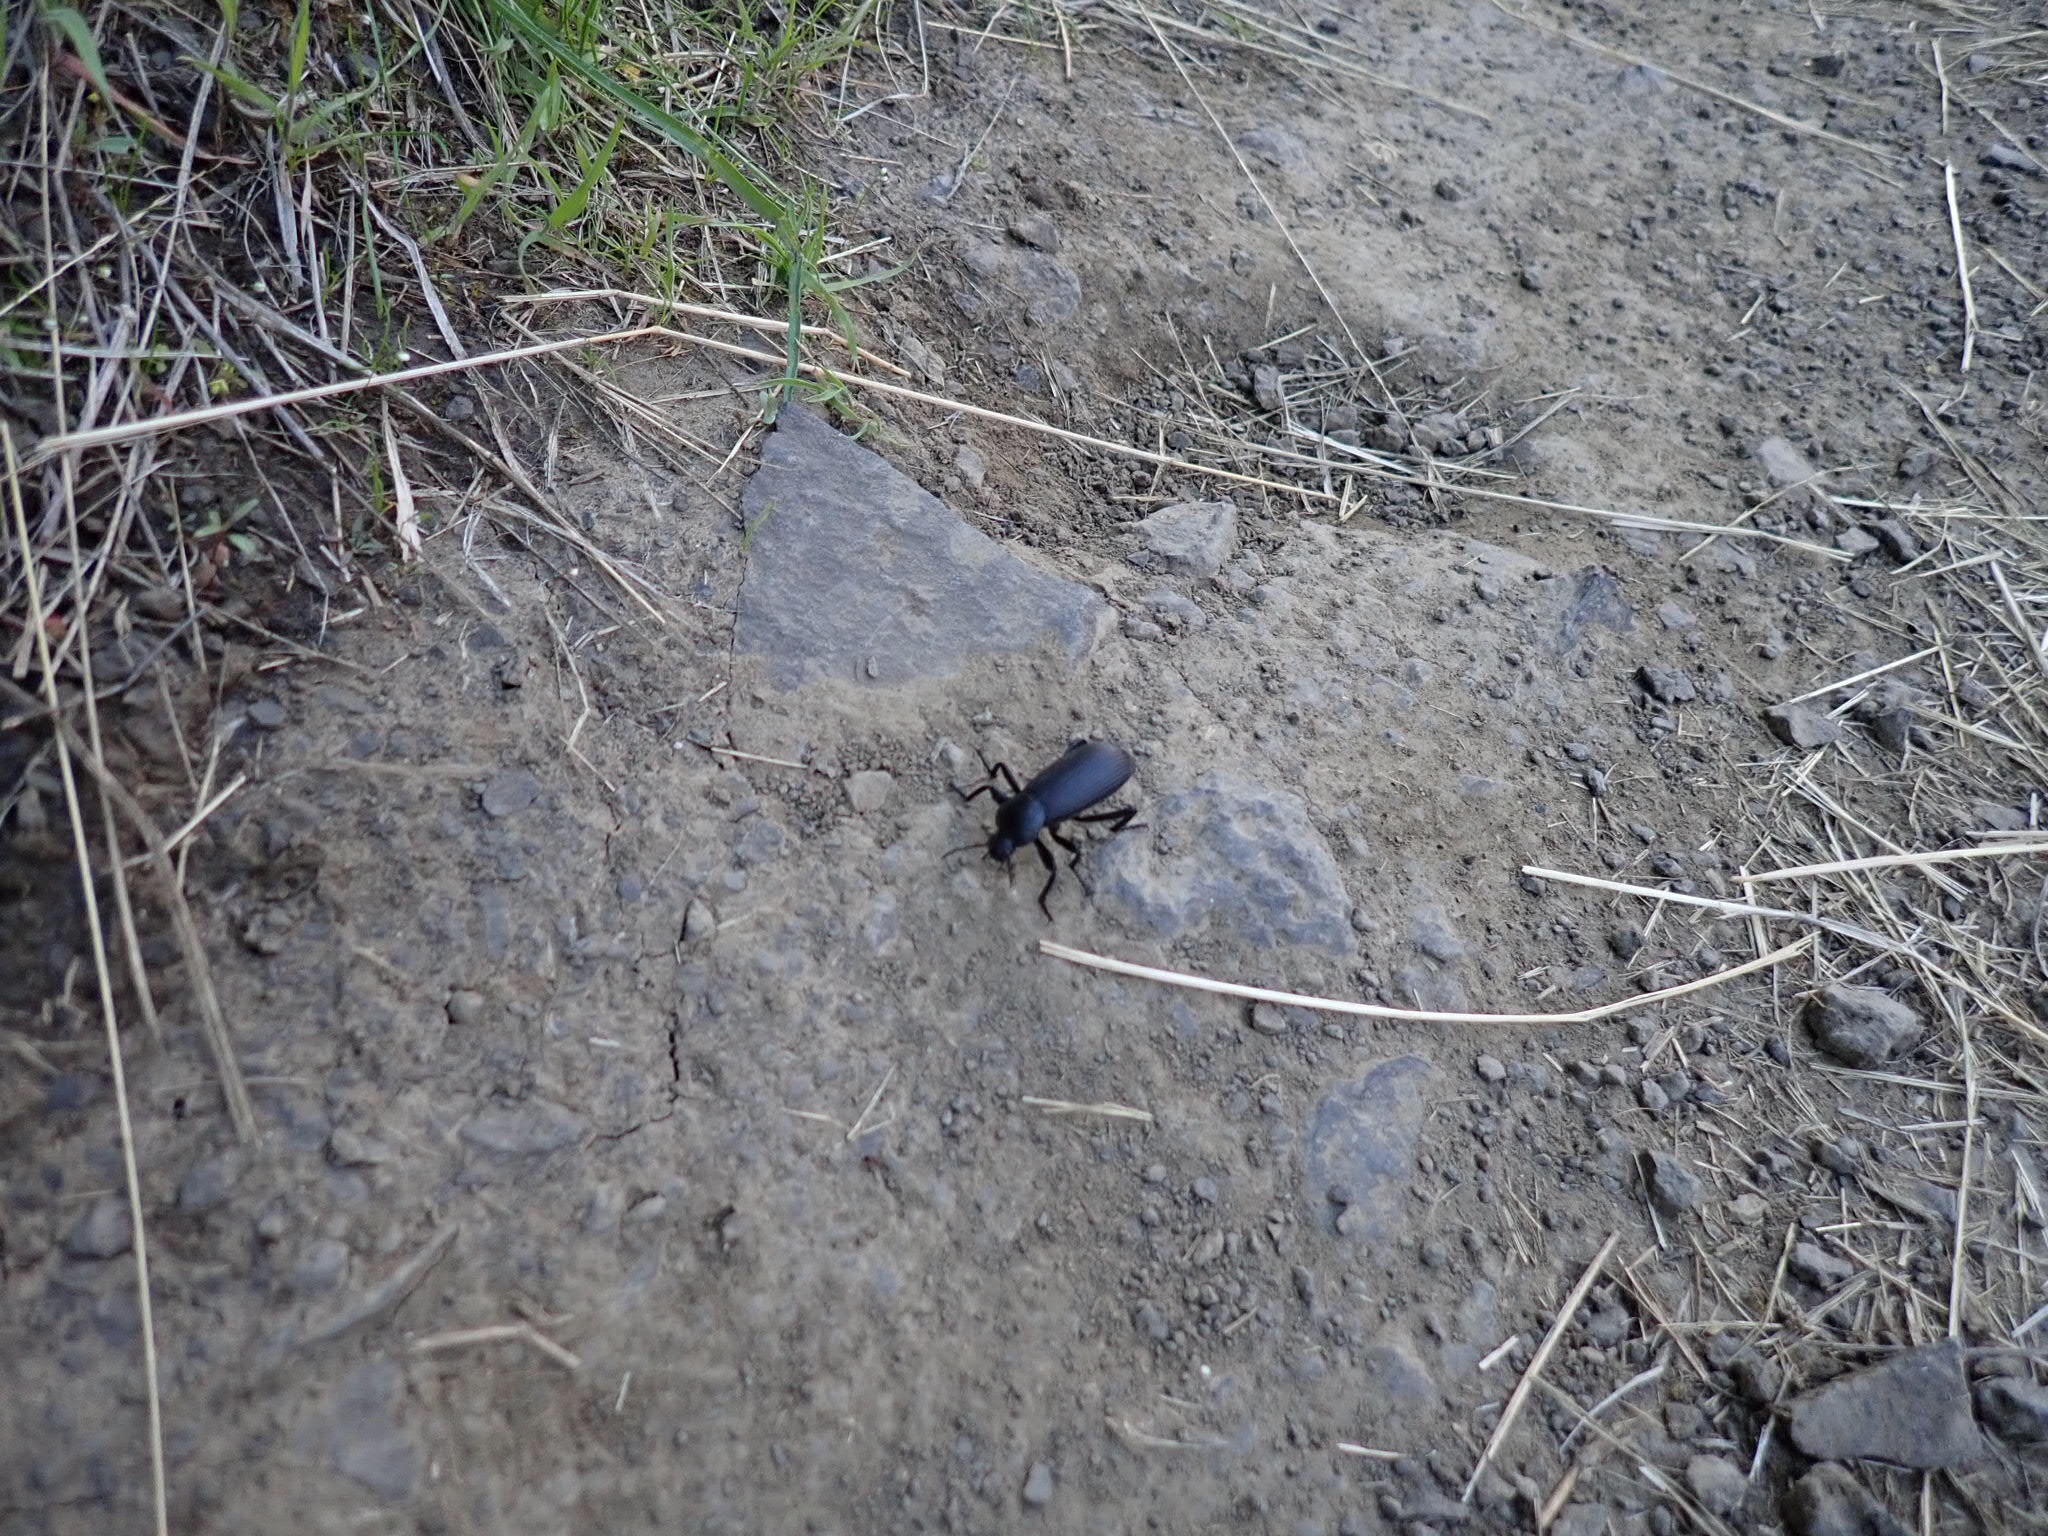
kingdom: Animalia
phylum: Arthropoda
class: Insecta
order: Coleoptera
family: Tenebrionidae
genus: Eleodes
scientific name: Eleodes obscura
